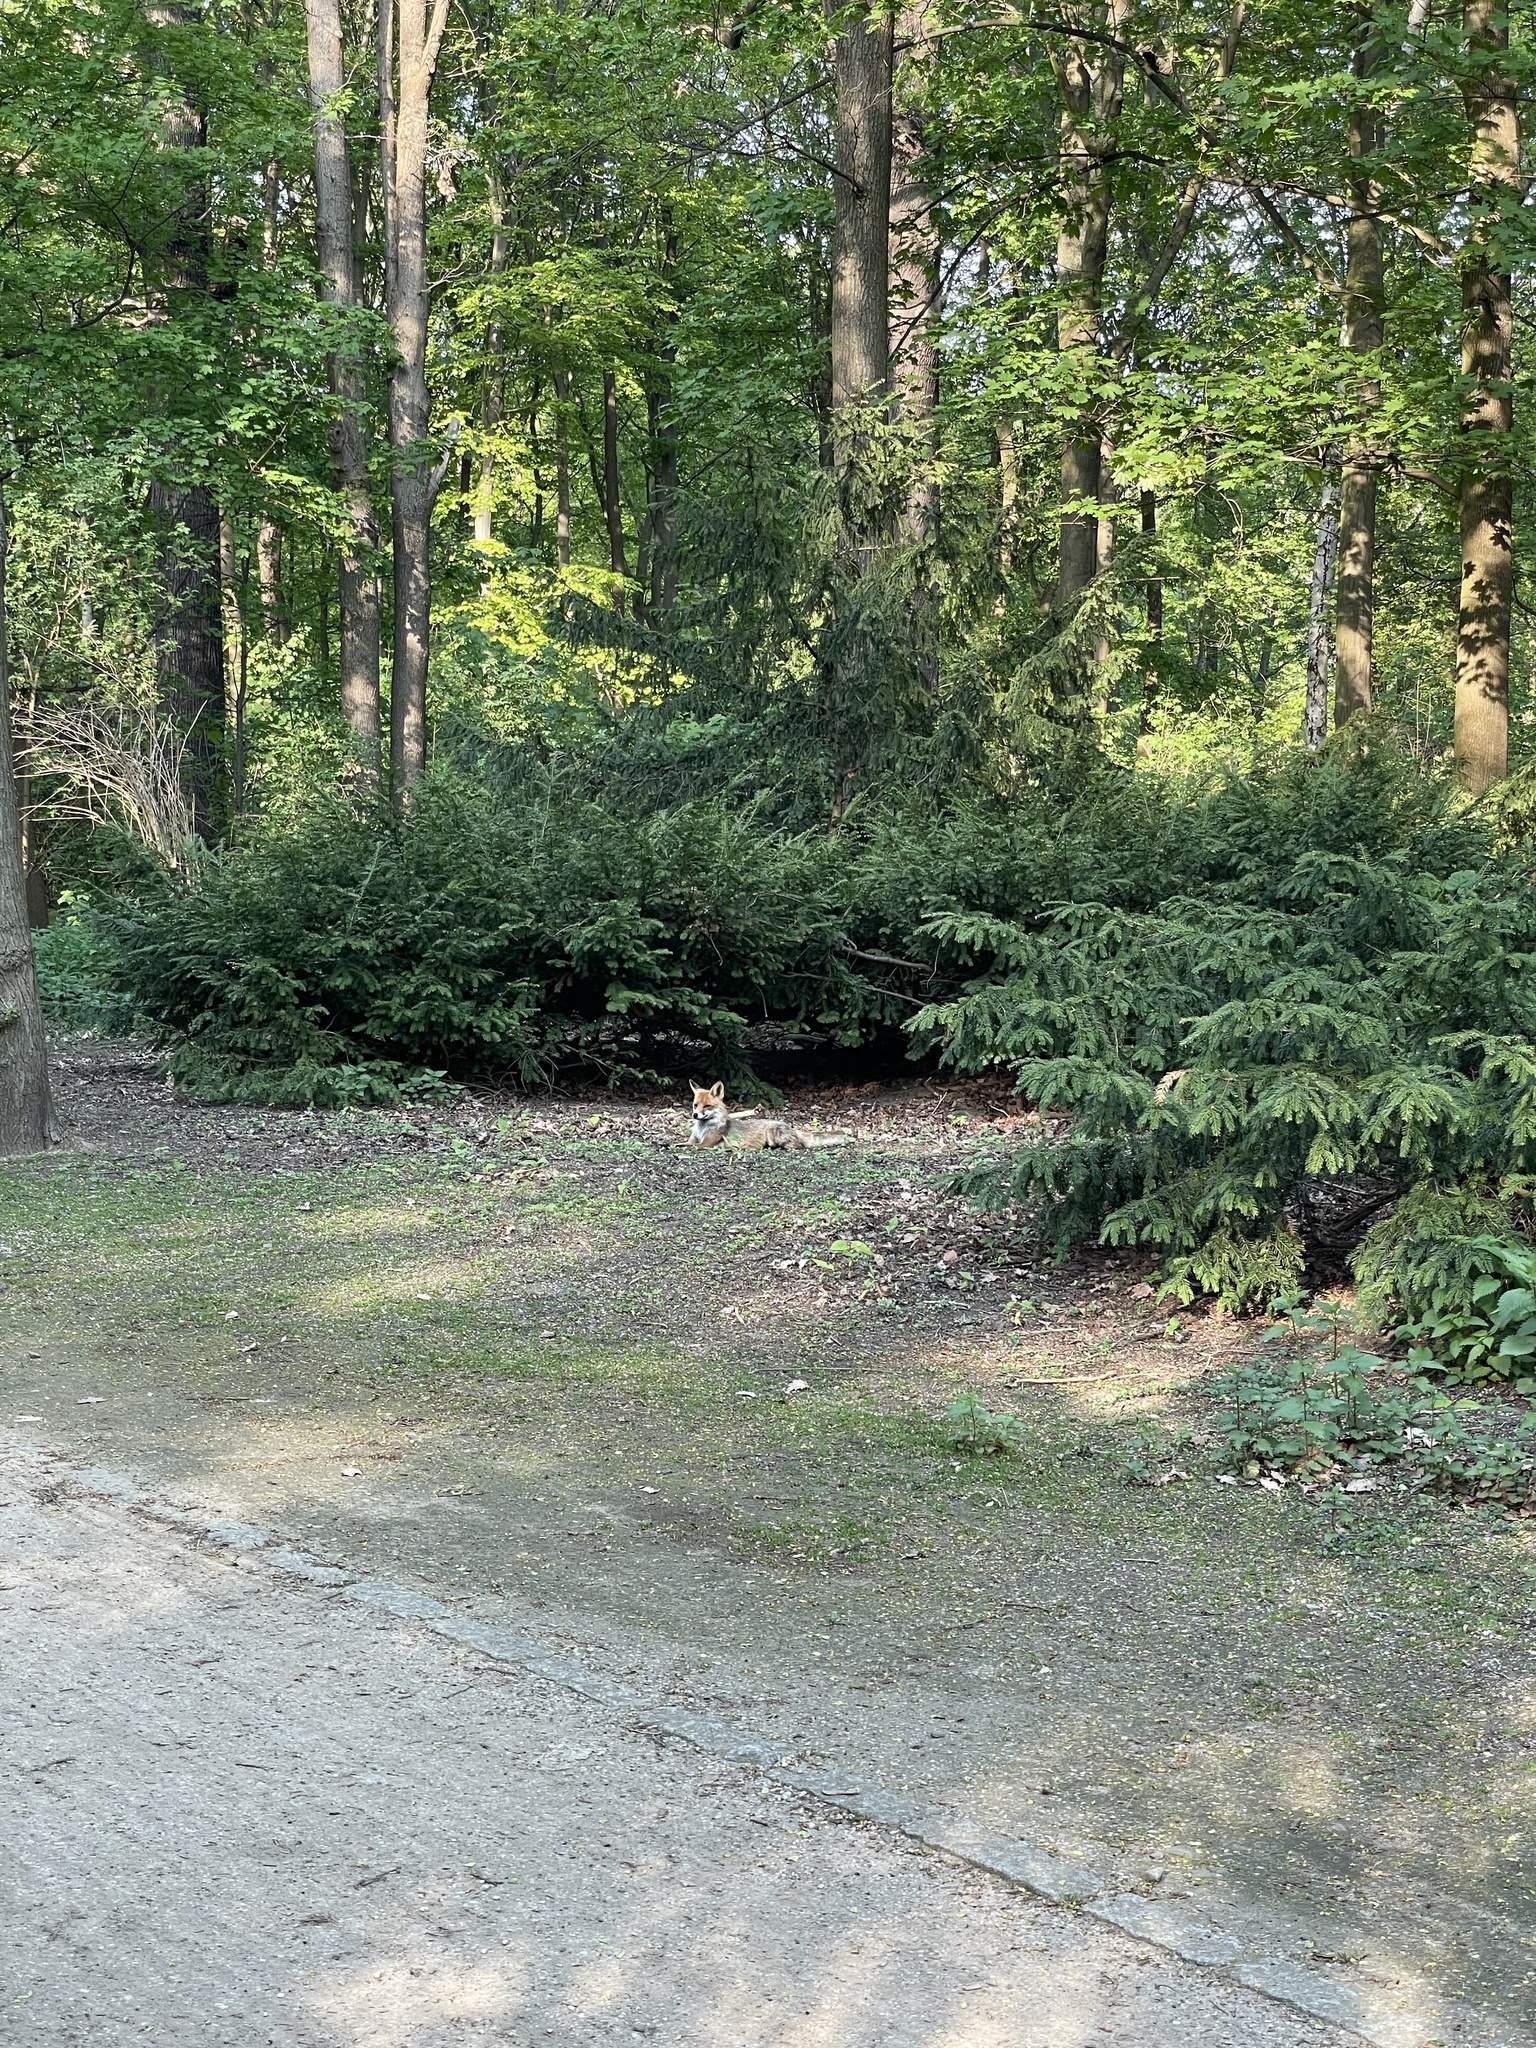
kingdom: Animalia
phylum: Chordata
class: Mammalia
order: Carnivora
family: Canidae
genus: Vulpes
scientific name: Vulpes vulpes
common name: Red fox
